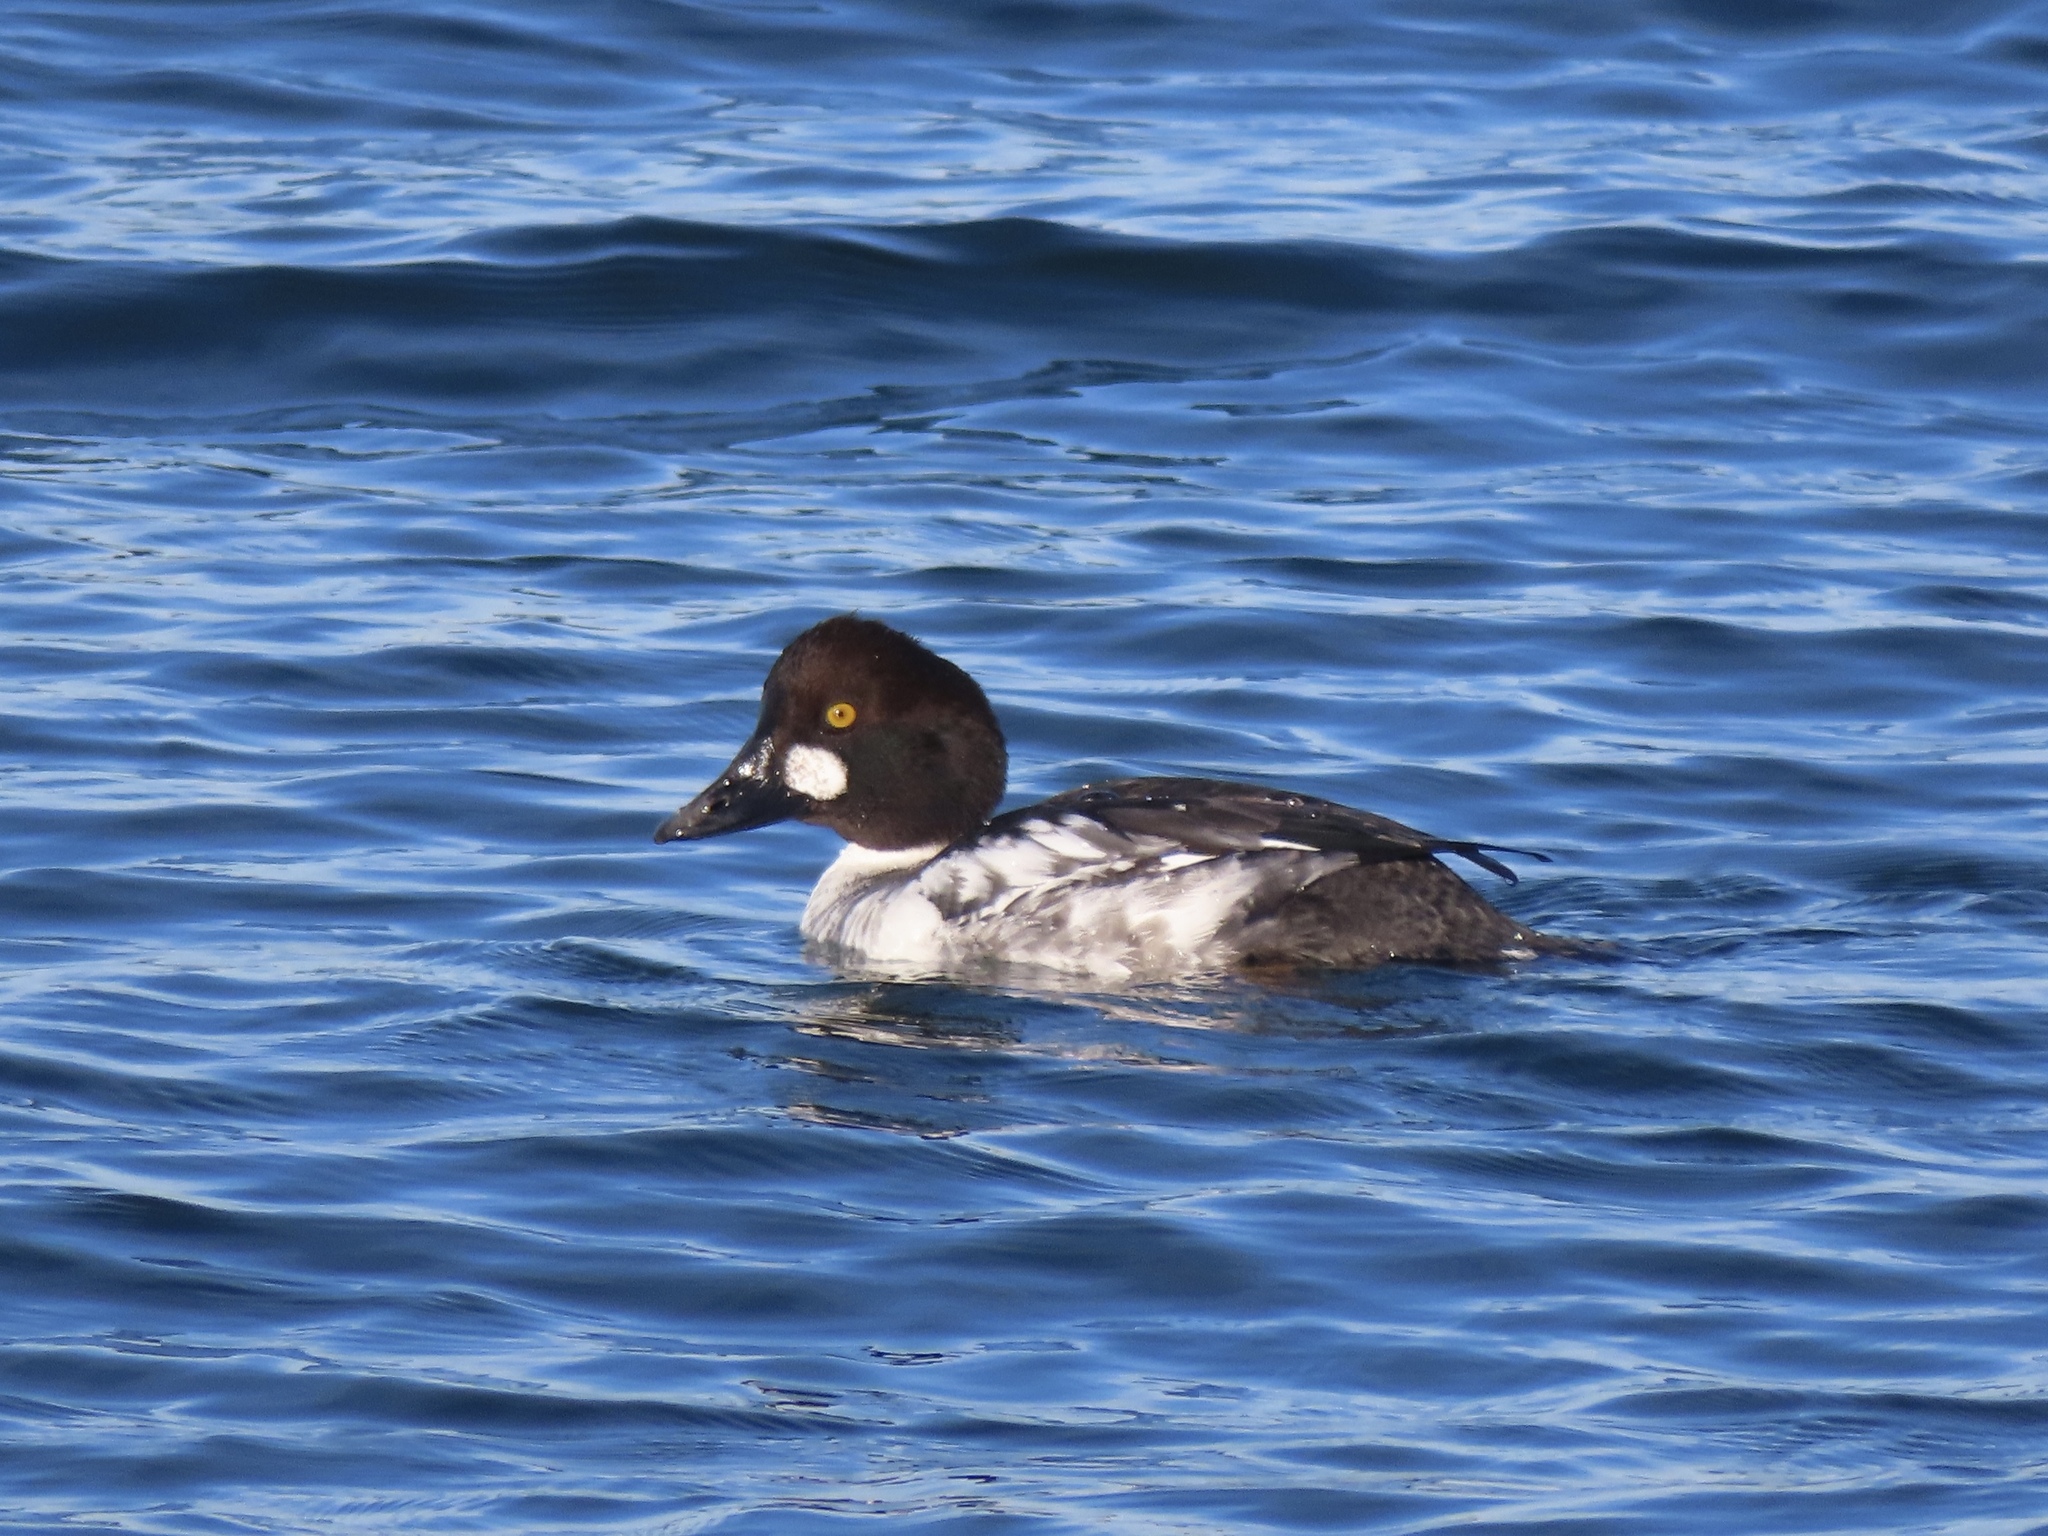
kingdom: Animalia
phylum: Chordata
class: Aves
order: Anseriformes
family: Anatidae
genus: Bucephala
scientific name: Bucephala clangula
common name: Common goldeneye
